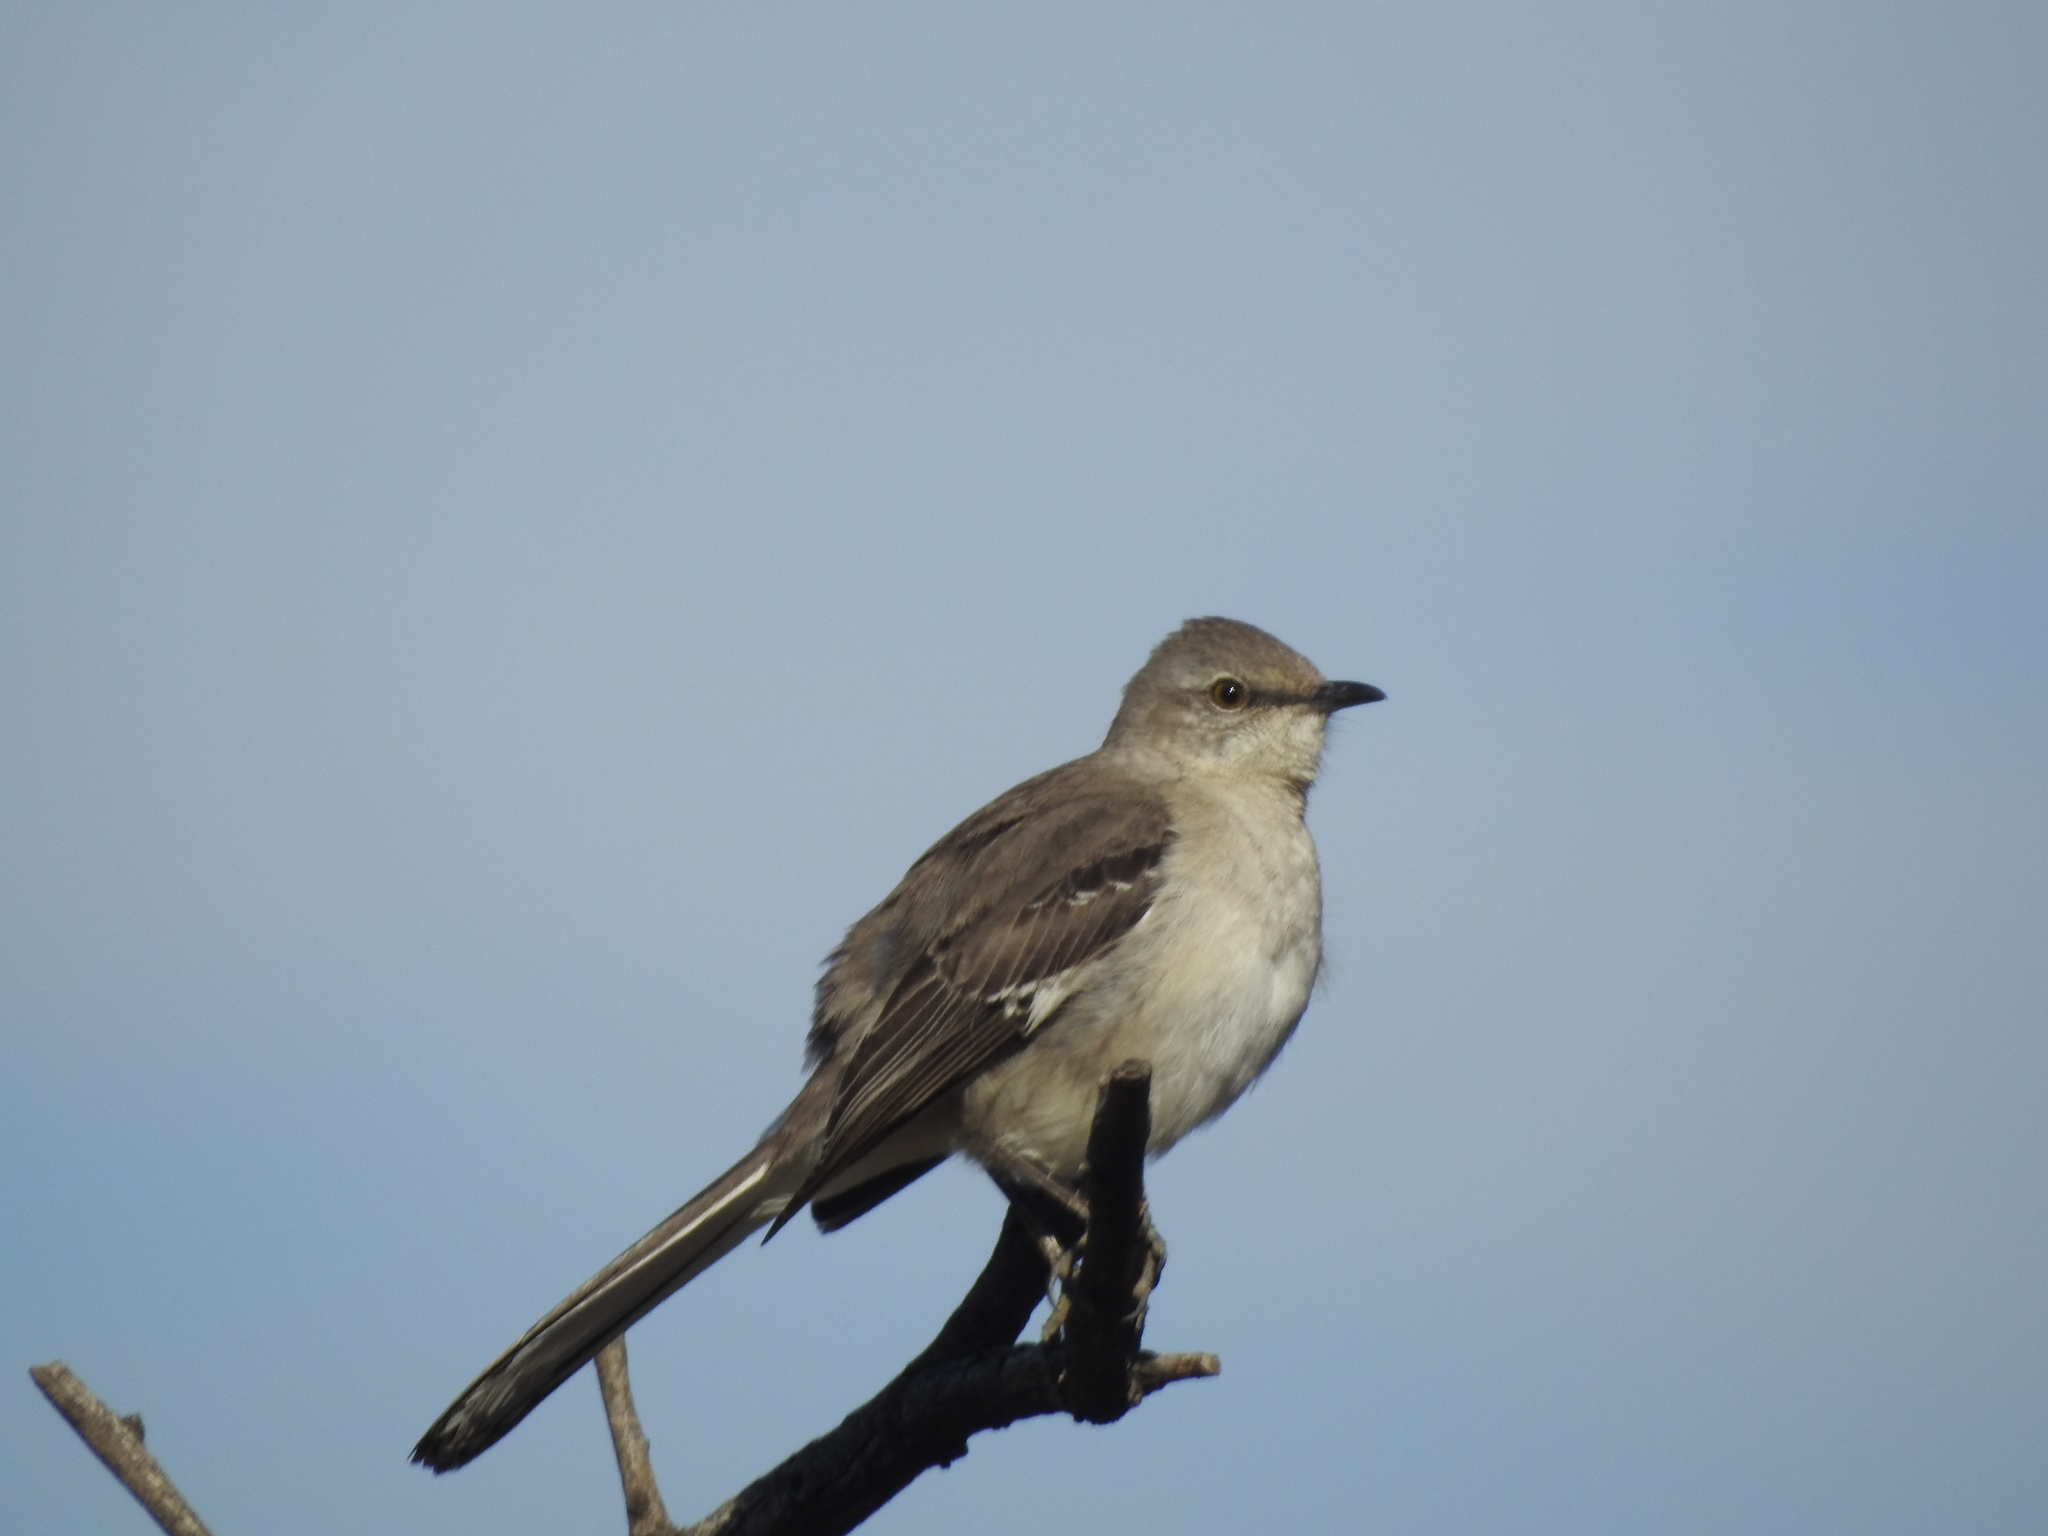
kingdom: Animalia
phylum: Chordata
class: Aves
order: Passeriformes
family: Mimidae
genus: Mimus
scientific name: Mimus polyglottos
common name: Northern mockingbird
